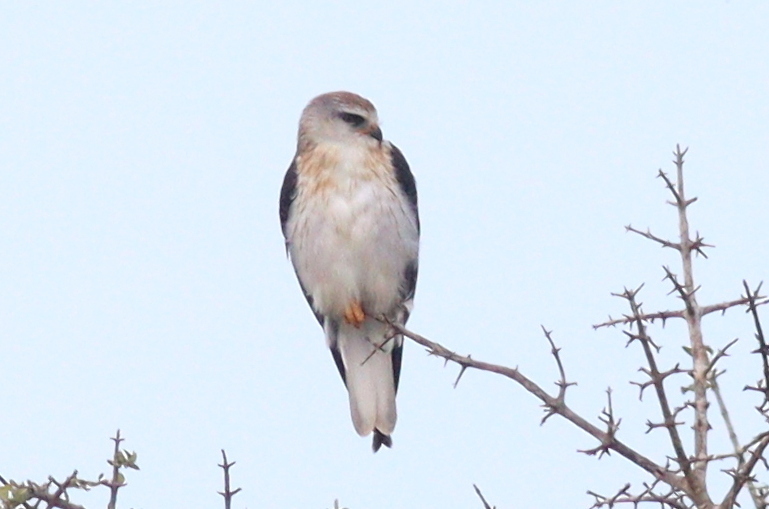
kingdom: Animalia
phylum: Chordata
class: Aves
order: Accipitriformes
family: Accipitridae
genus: Elanus
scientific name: Elanus caeruleus
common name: Black-winged kite
